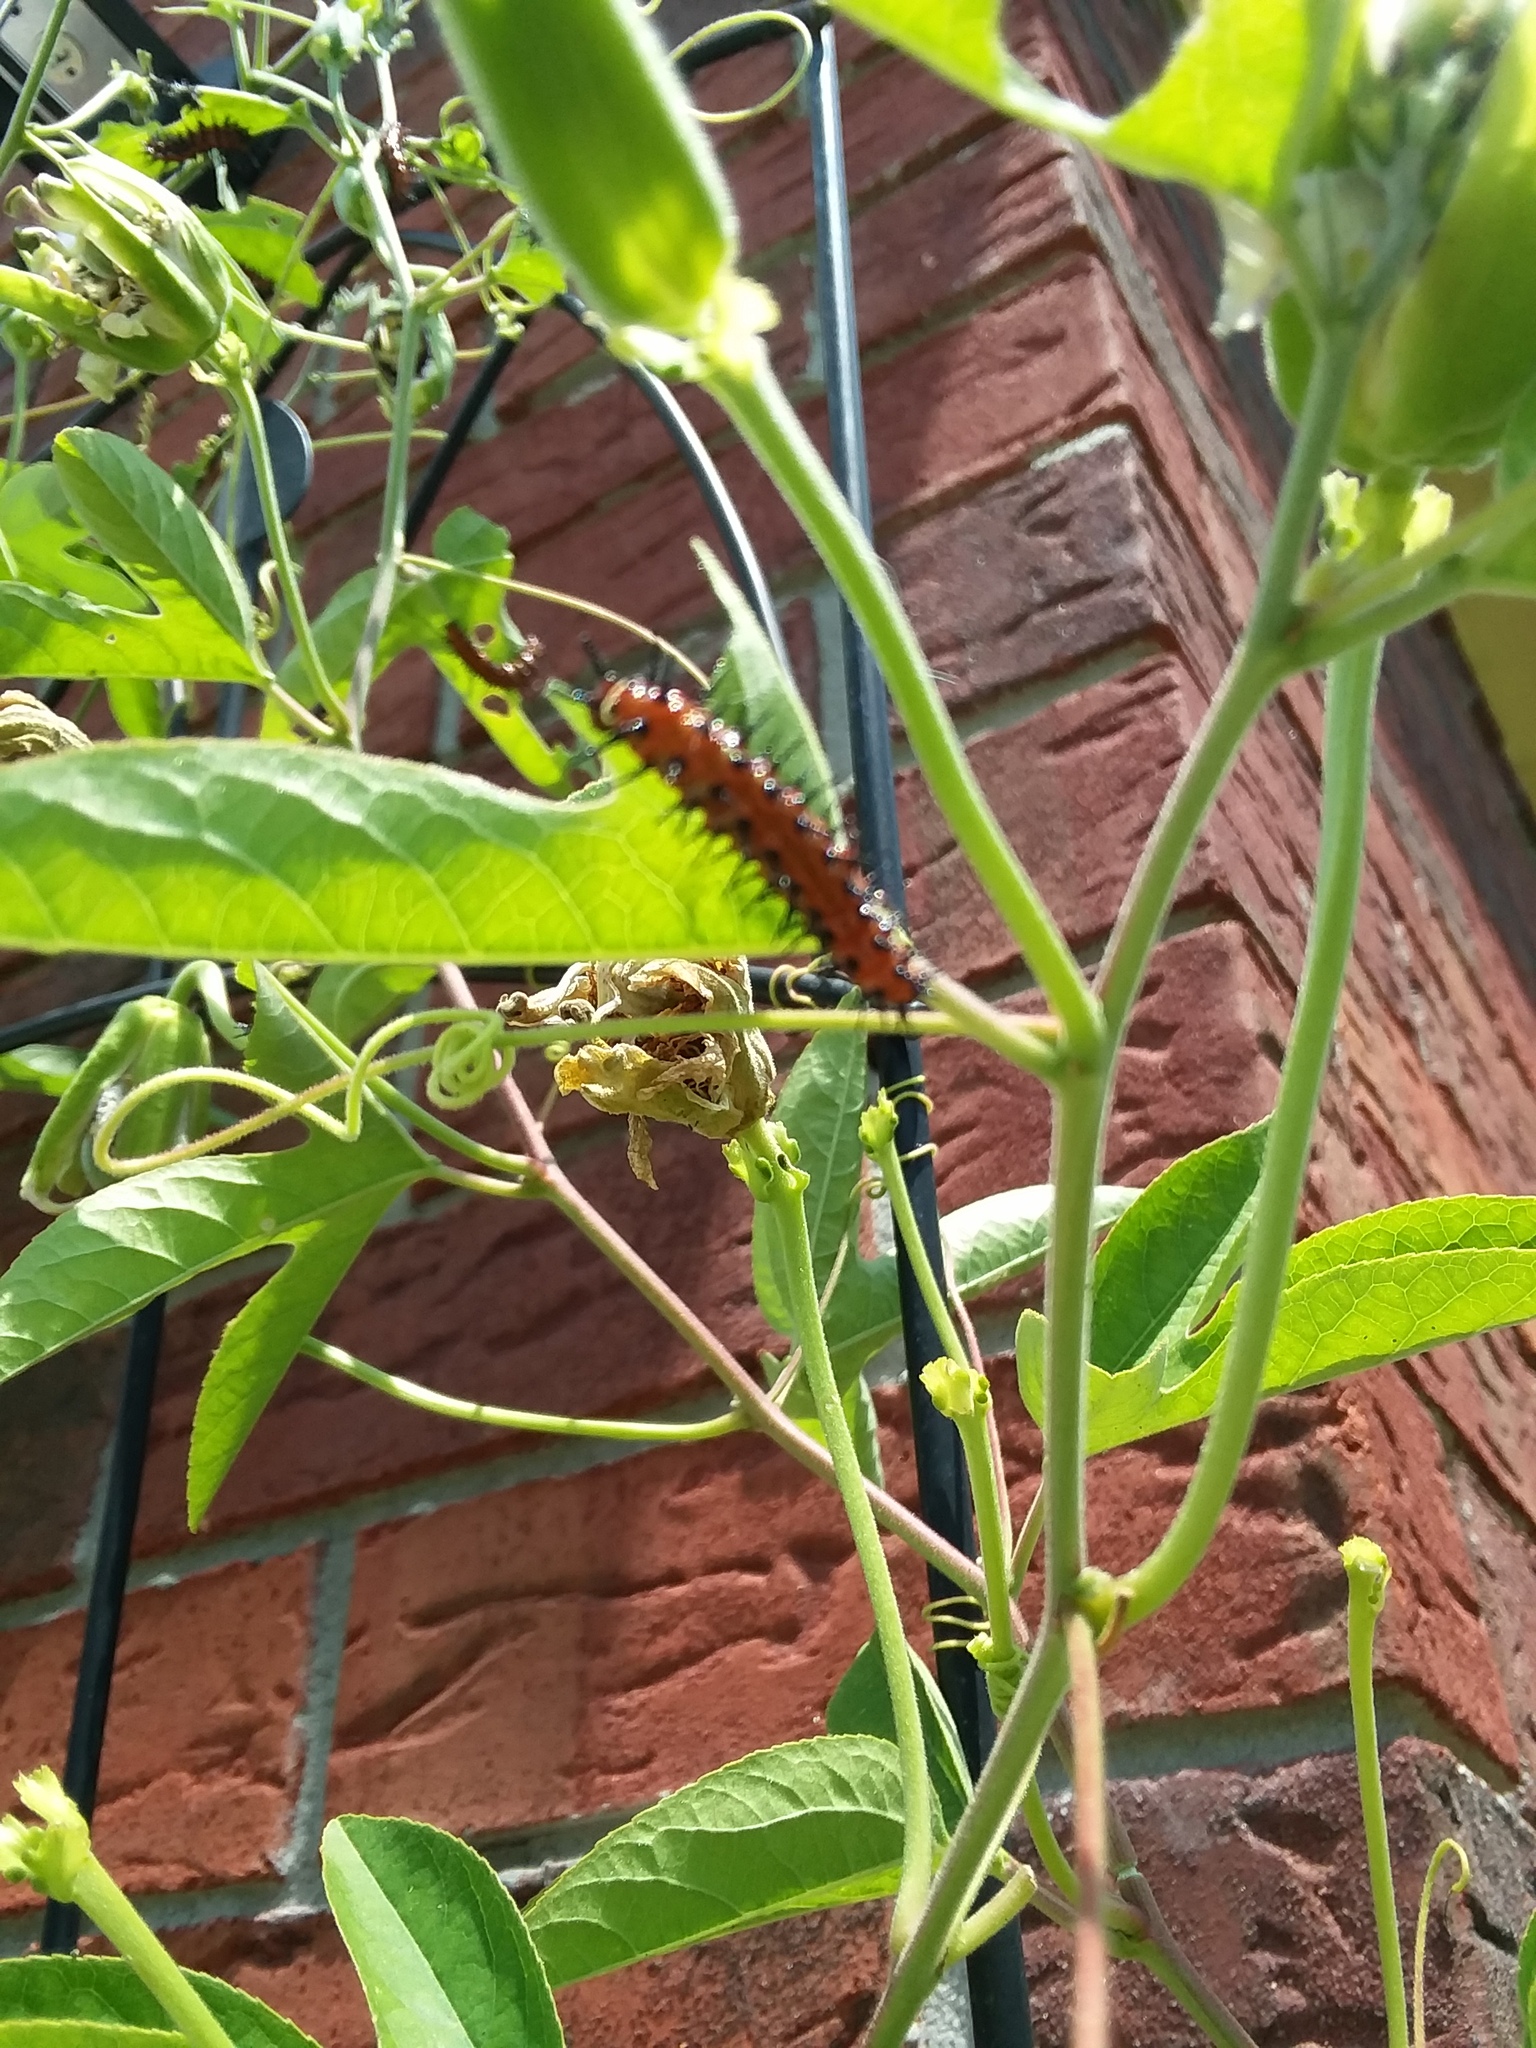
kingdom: Animalia
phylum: Arthropoda
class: Insecta
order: Lepidoptera
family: Nymphalidae
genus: Dione
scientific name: Dione vanillae
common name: Gulf fritillary
